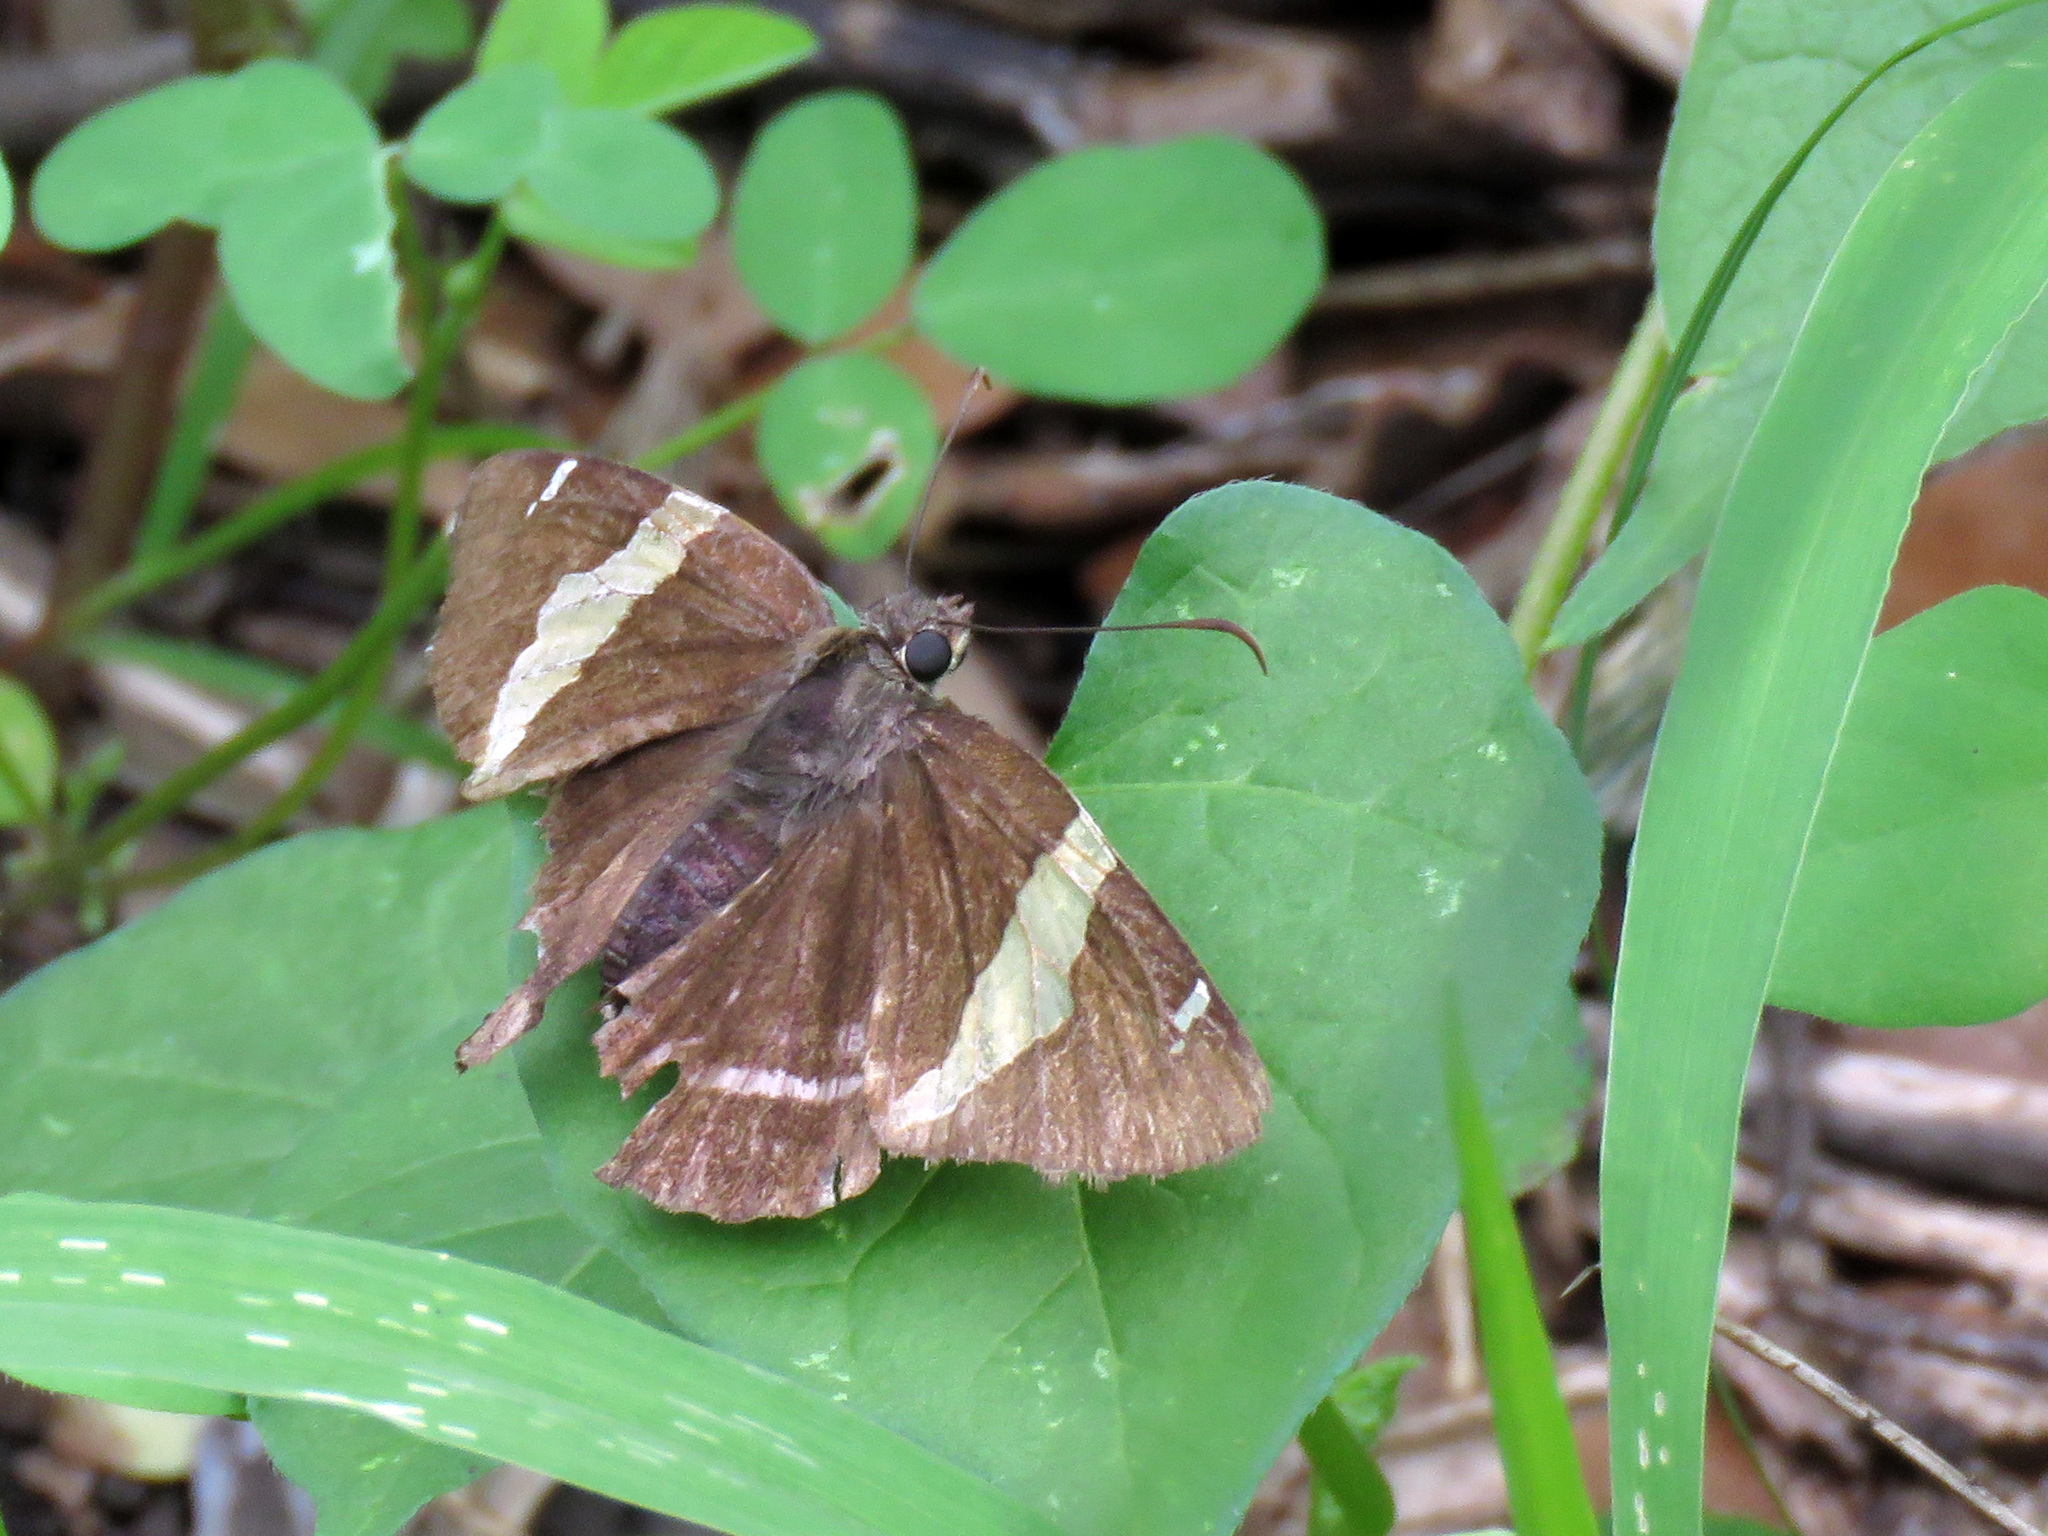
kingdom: Animalia
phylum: Arthropoda
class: Arachnida
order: Scorpiones
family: Bothriuridae
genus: Telegonus
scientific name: Telegonus cellus
